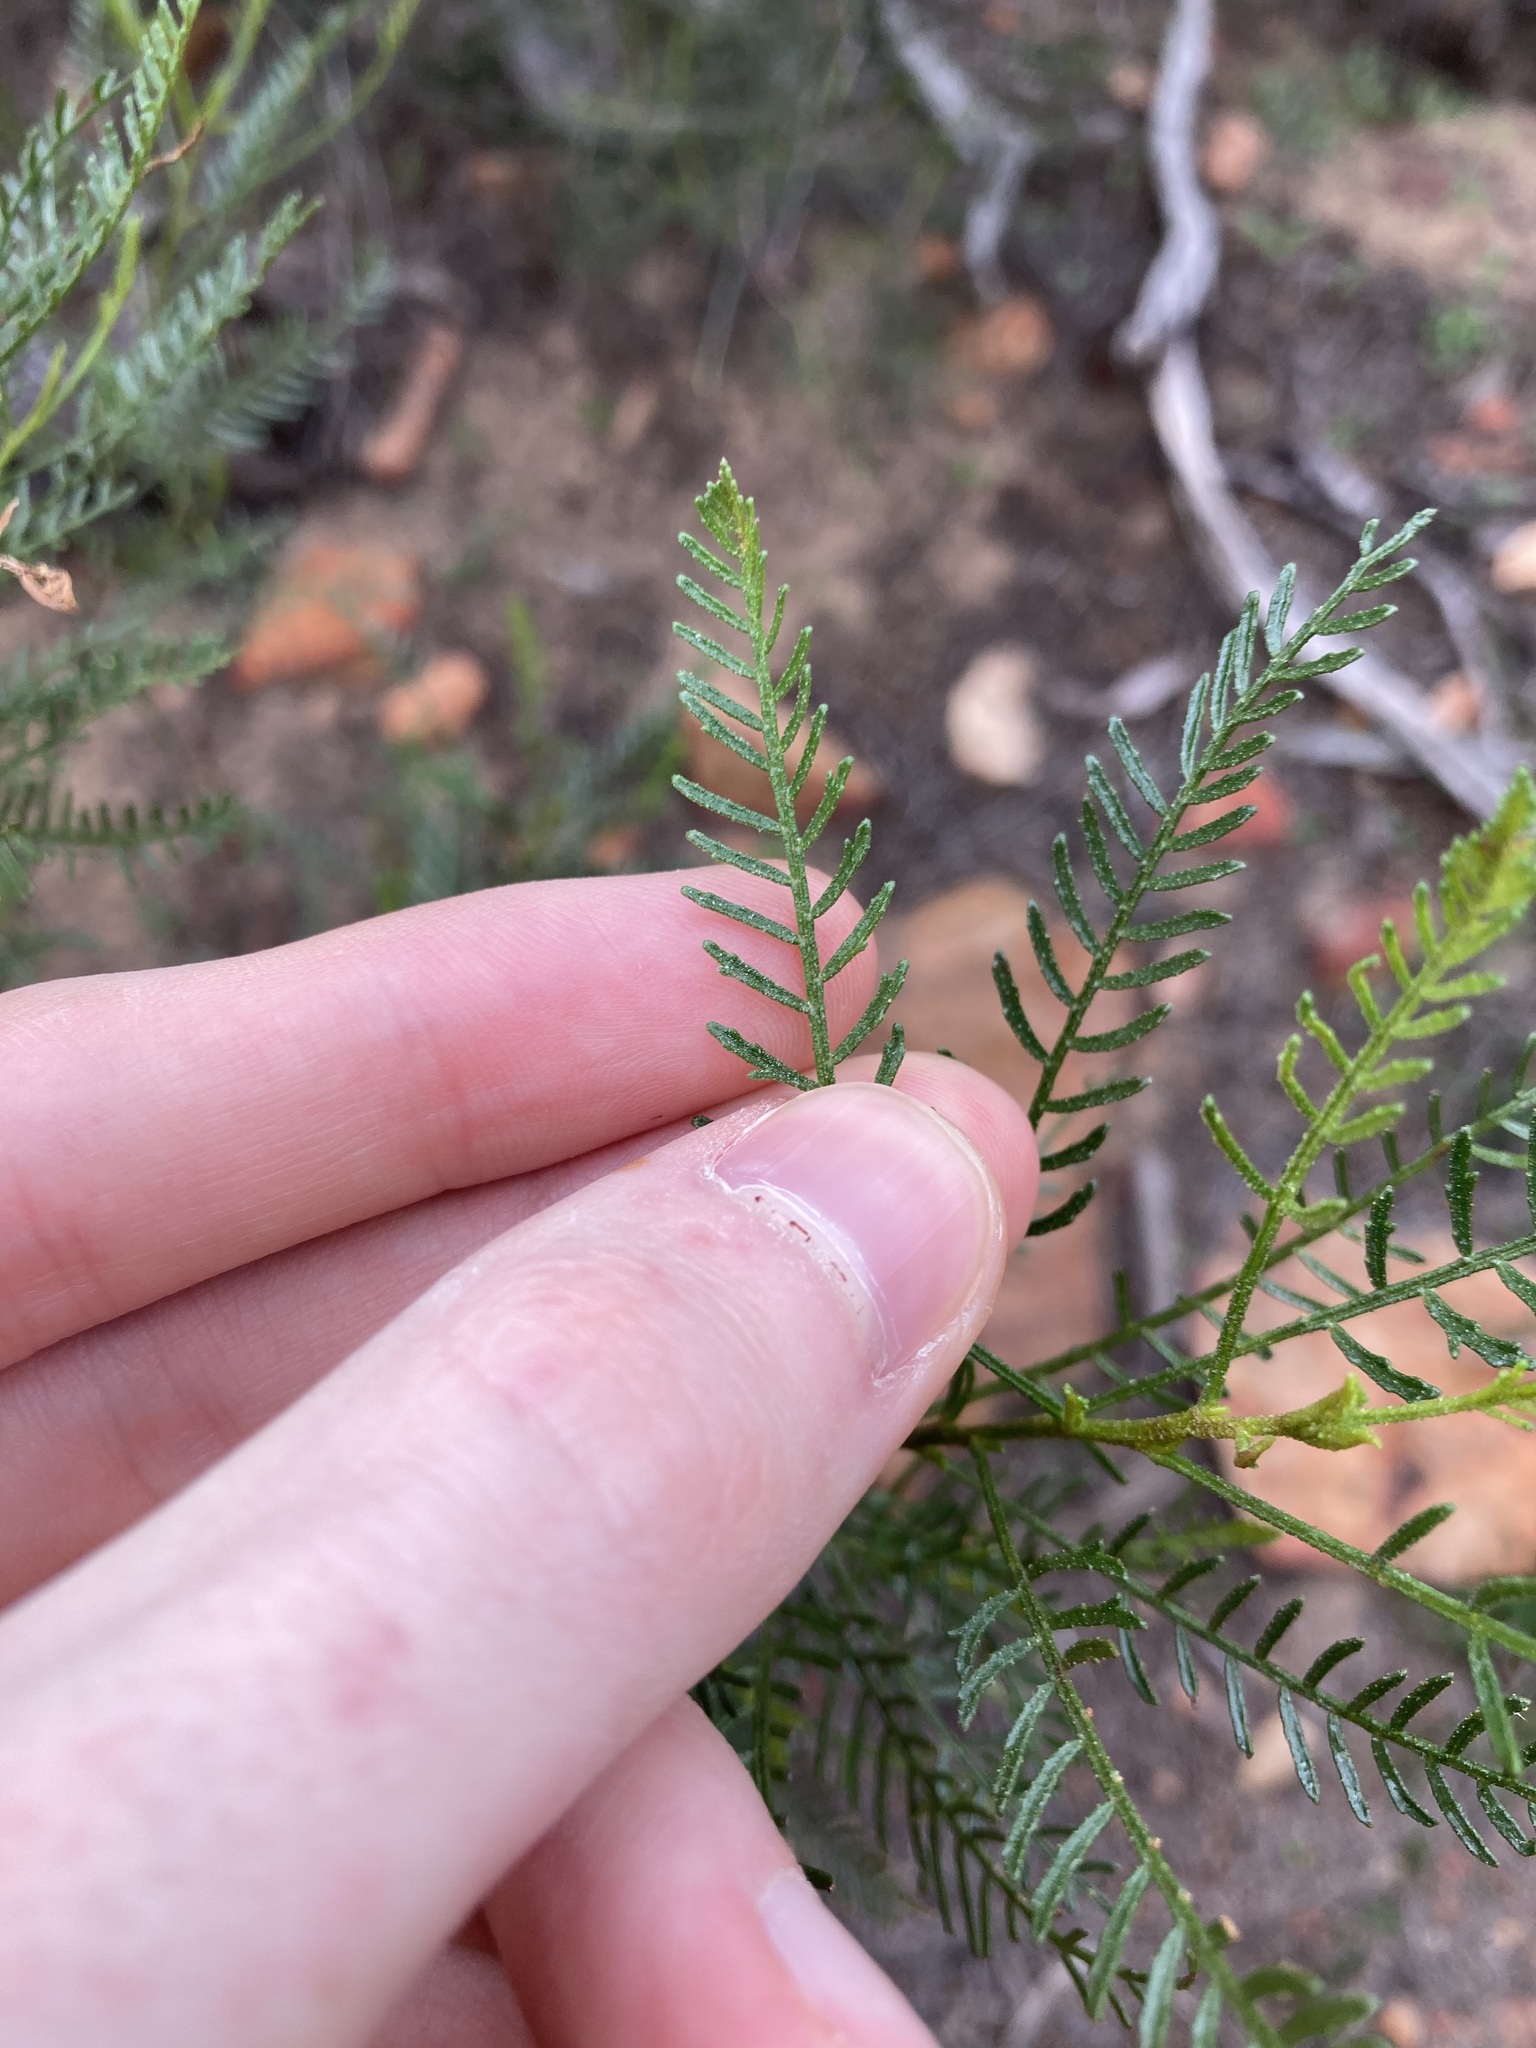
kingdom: Plantae
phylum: Tracheophyta
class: Magnoliopsida
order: Sapindales
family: Sapindaceae
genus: Dodonaea
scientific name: Dodonaea inaequifolia
